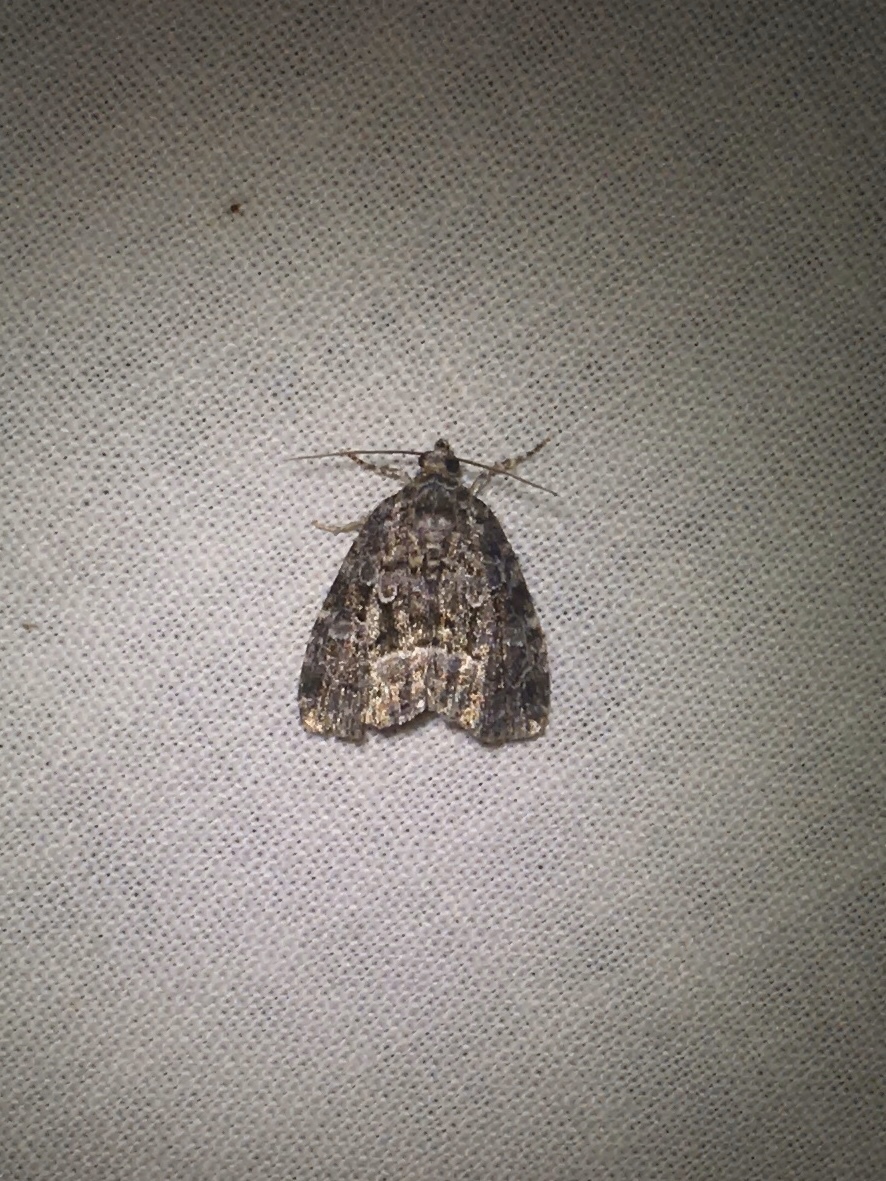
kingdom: Animalia
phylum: Arthropoda
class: Insecta
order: Lepidoptera
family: Noctuidae
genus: Protodeltote
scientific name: Protodeltote muscosula
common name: Large mossy glyph
